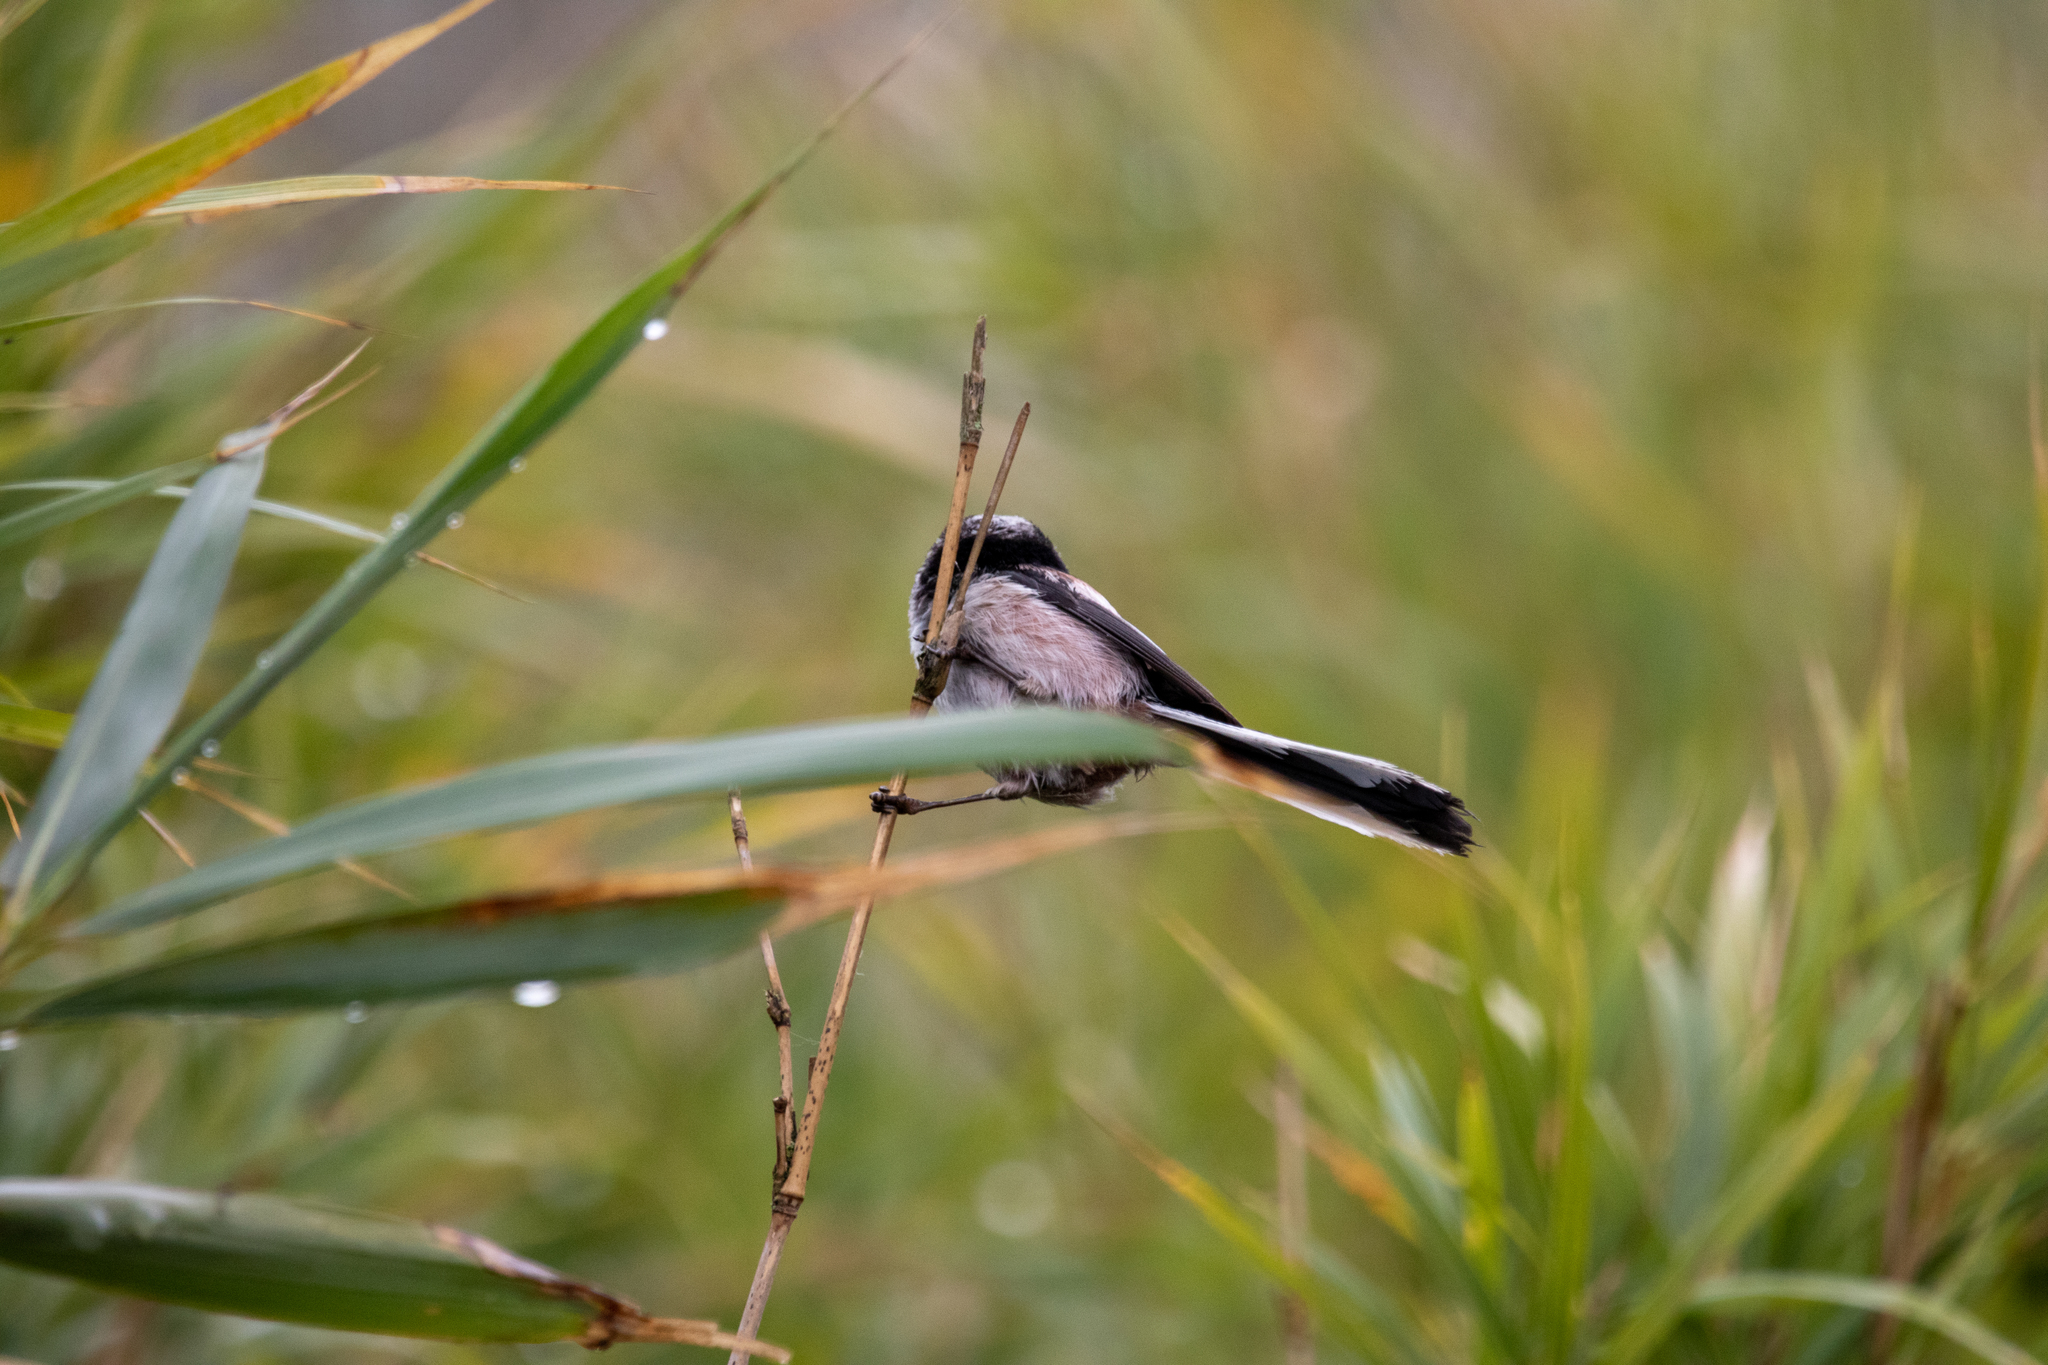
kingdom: Animalia
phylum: Chordata
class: Aves
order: Passeriformes
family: Aegithalidae
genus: Aegithalos
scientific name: Aegithalos caudatus
